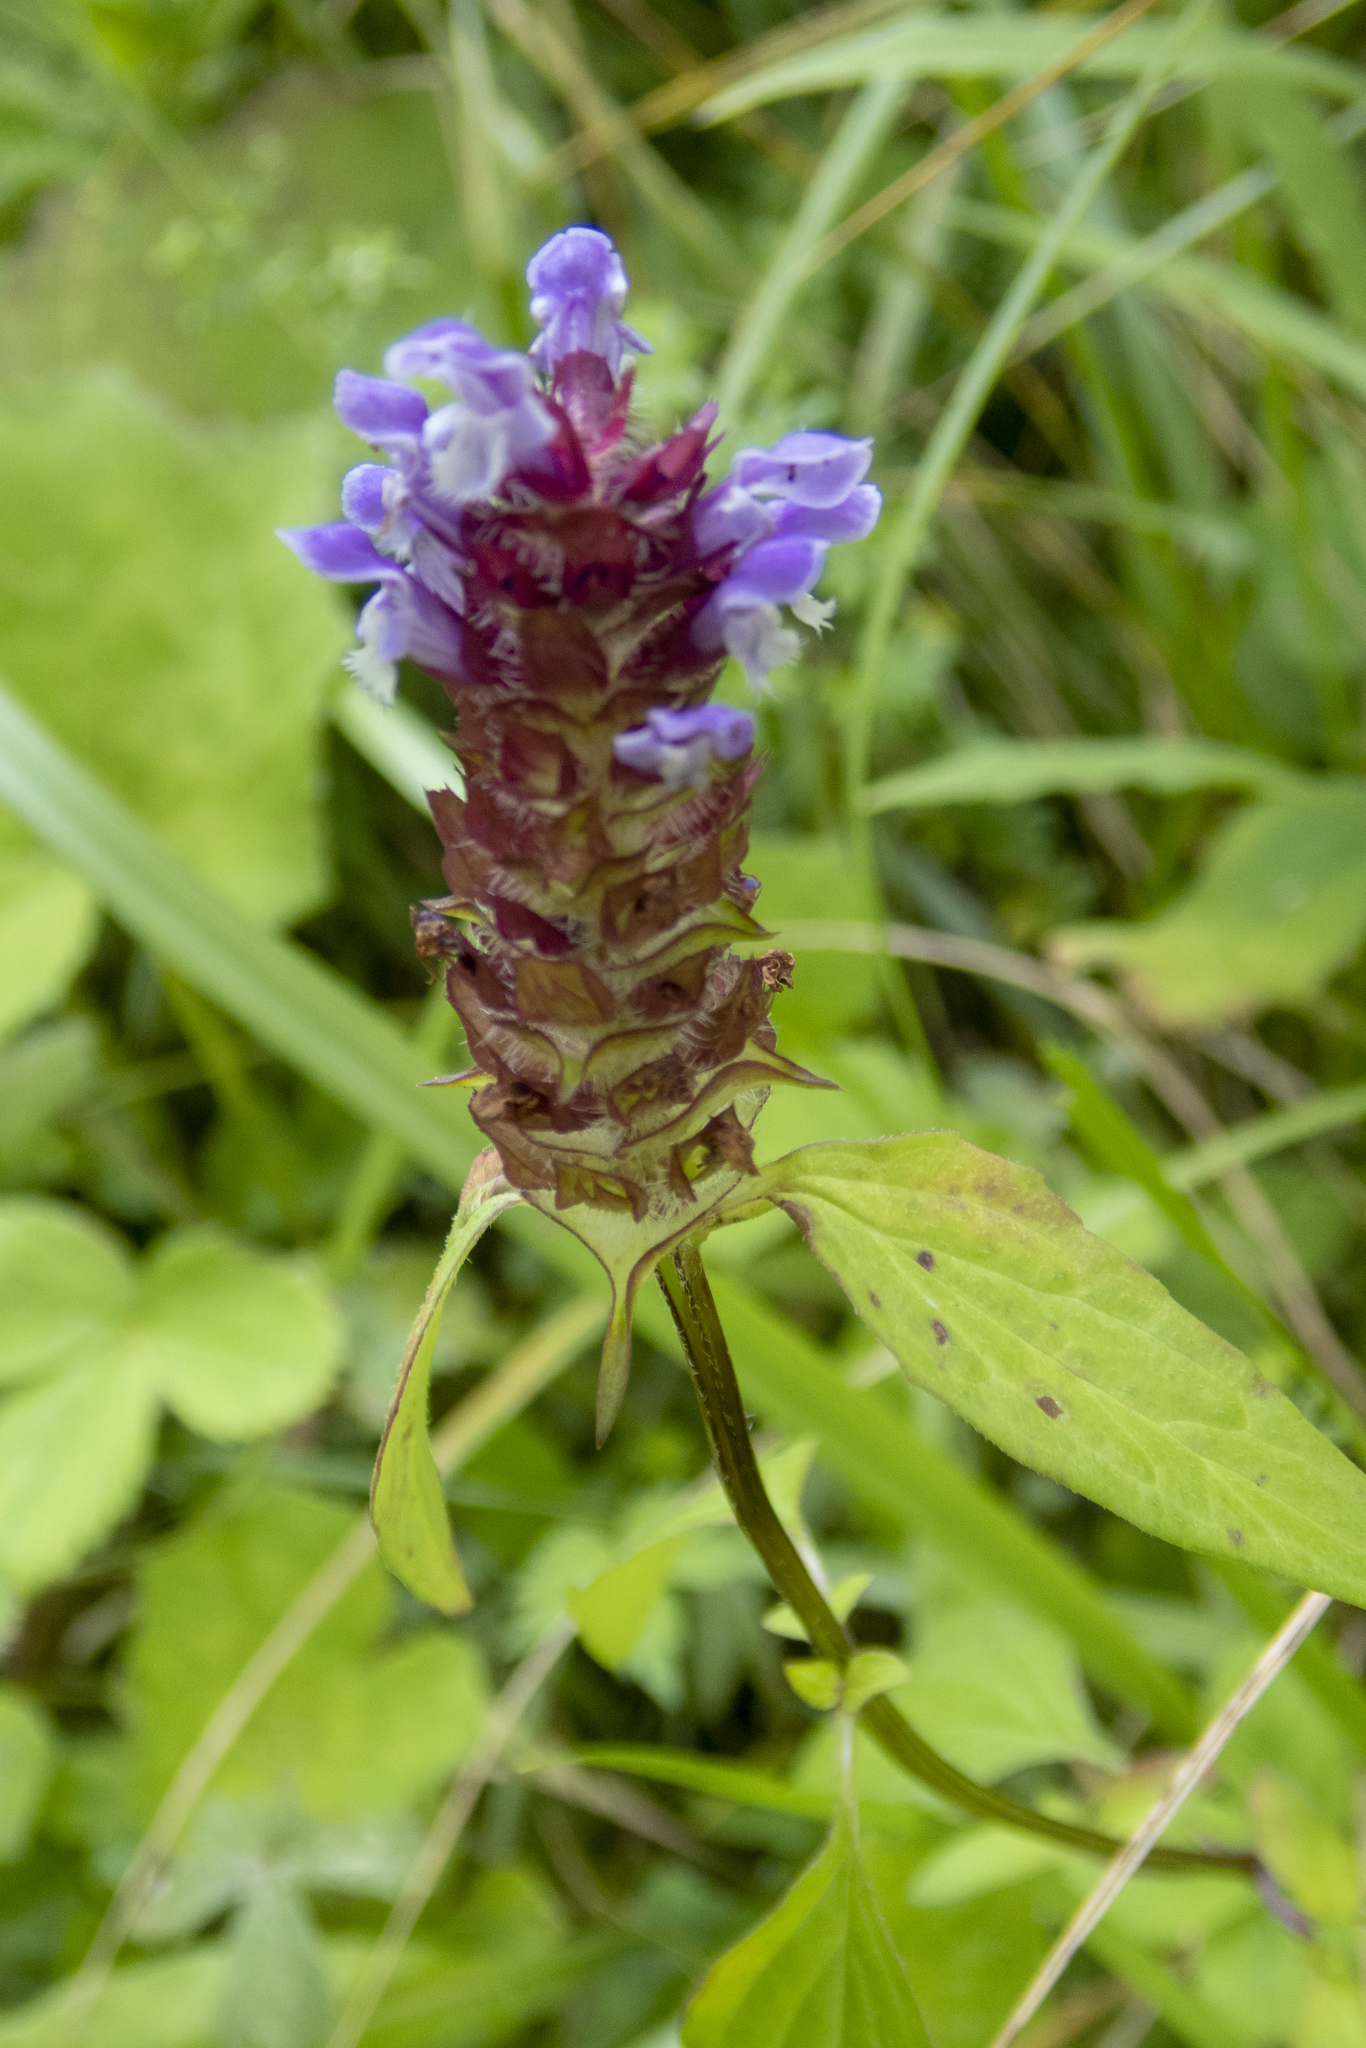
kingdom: Plantae
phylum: Tracheophyta
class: Magnoliopsida
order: Lamiales
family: Lamiaceae
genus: Prunella
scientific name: Prunella vulgaris
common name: Heal-all
